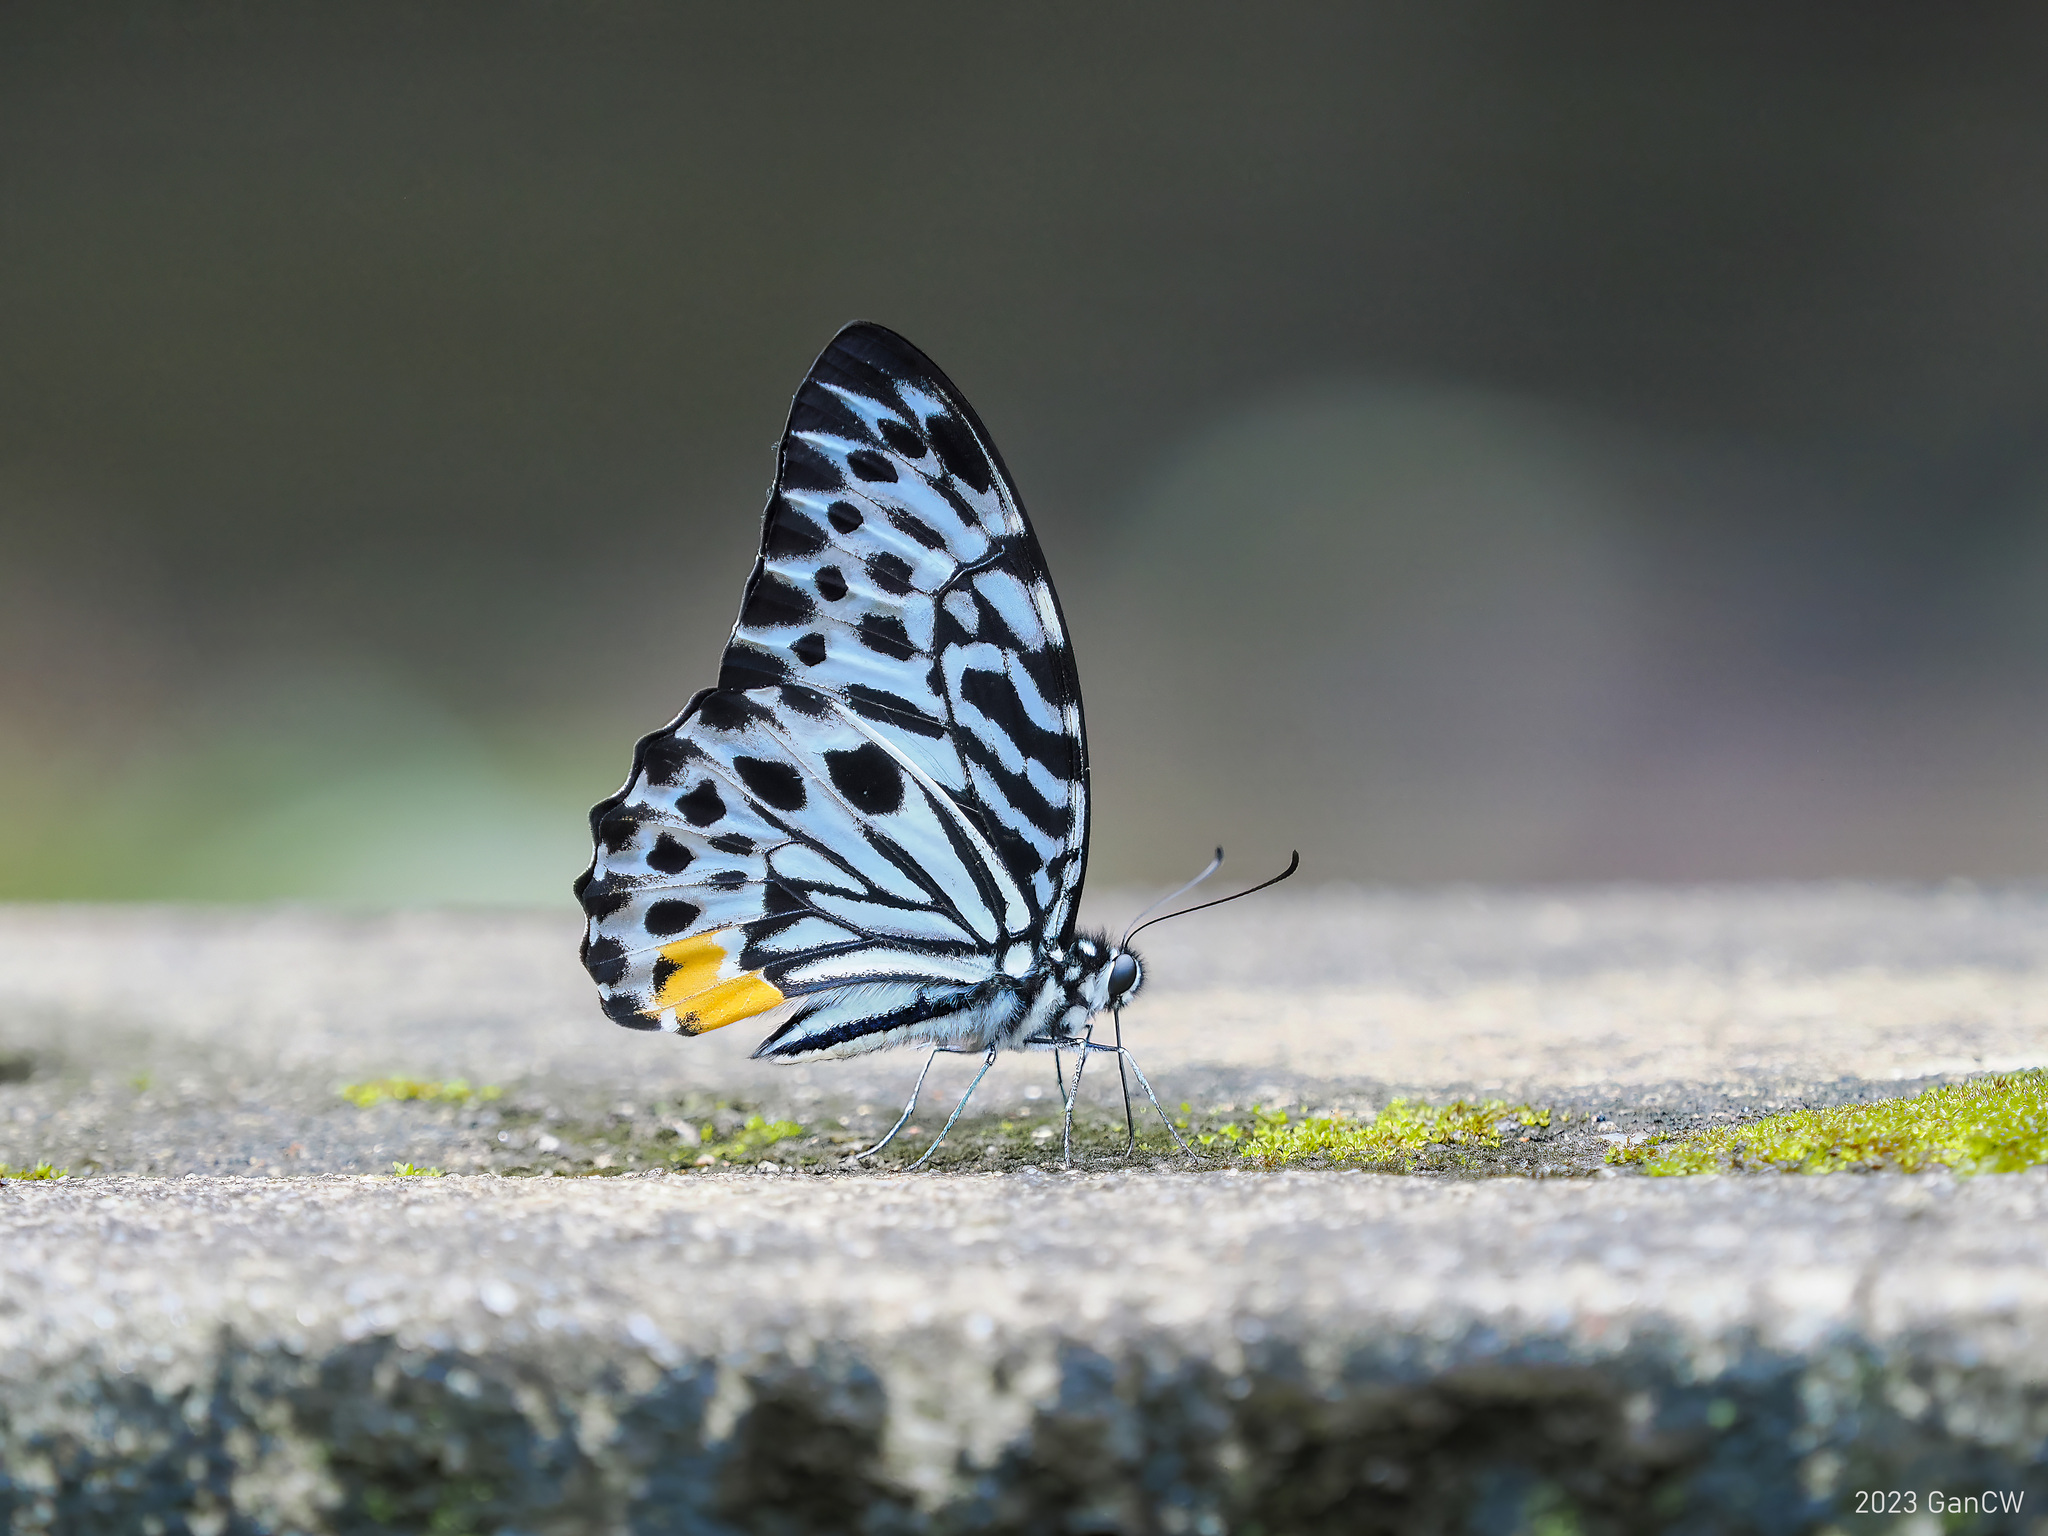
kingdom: Animalia
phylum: Arthropoda
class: Insecta
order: Lepidoptera
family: Papilionidae
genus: Graphium
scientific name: Graphium delesserti
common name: Malayan zebra
